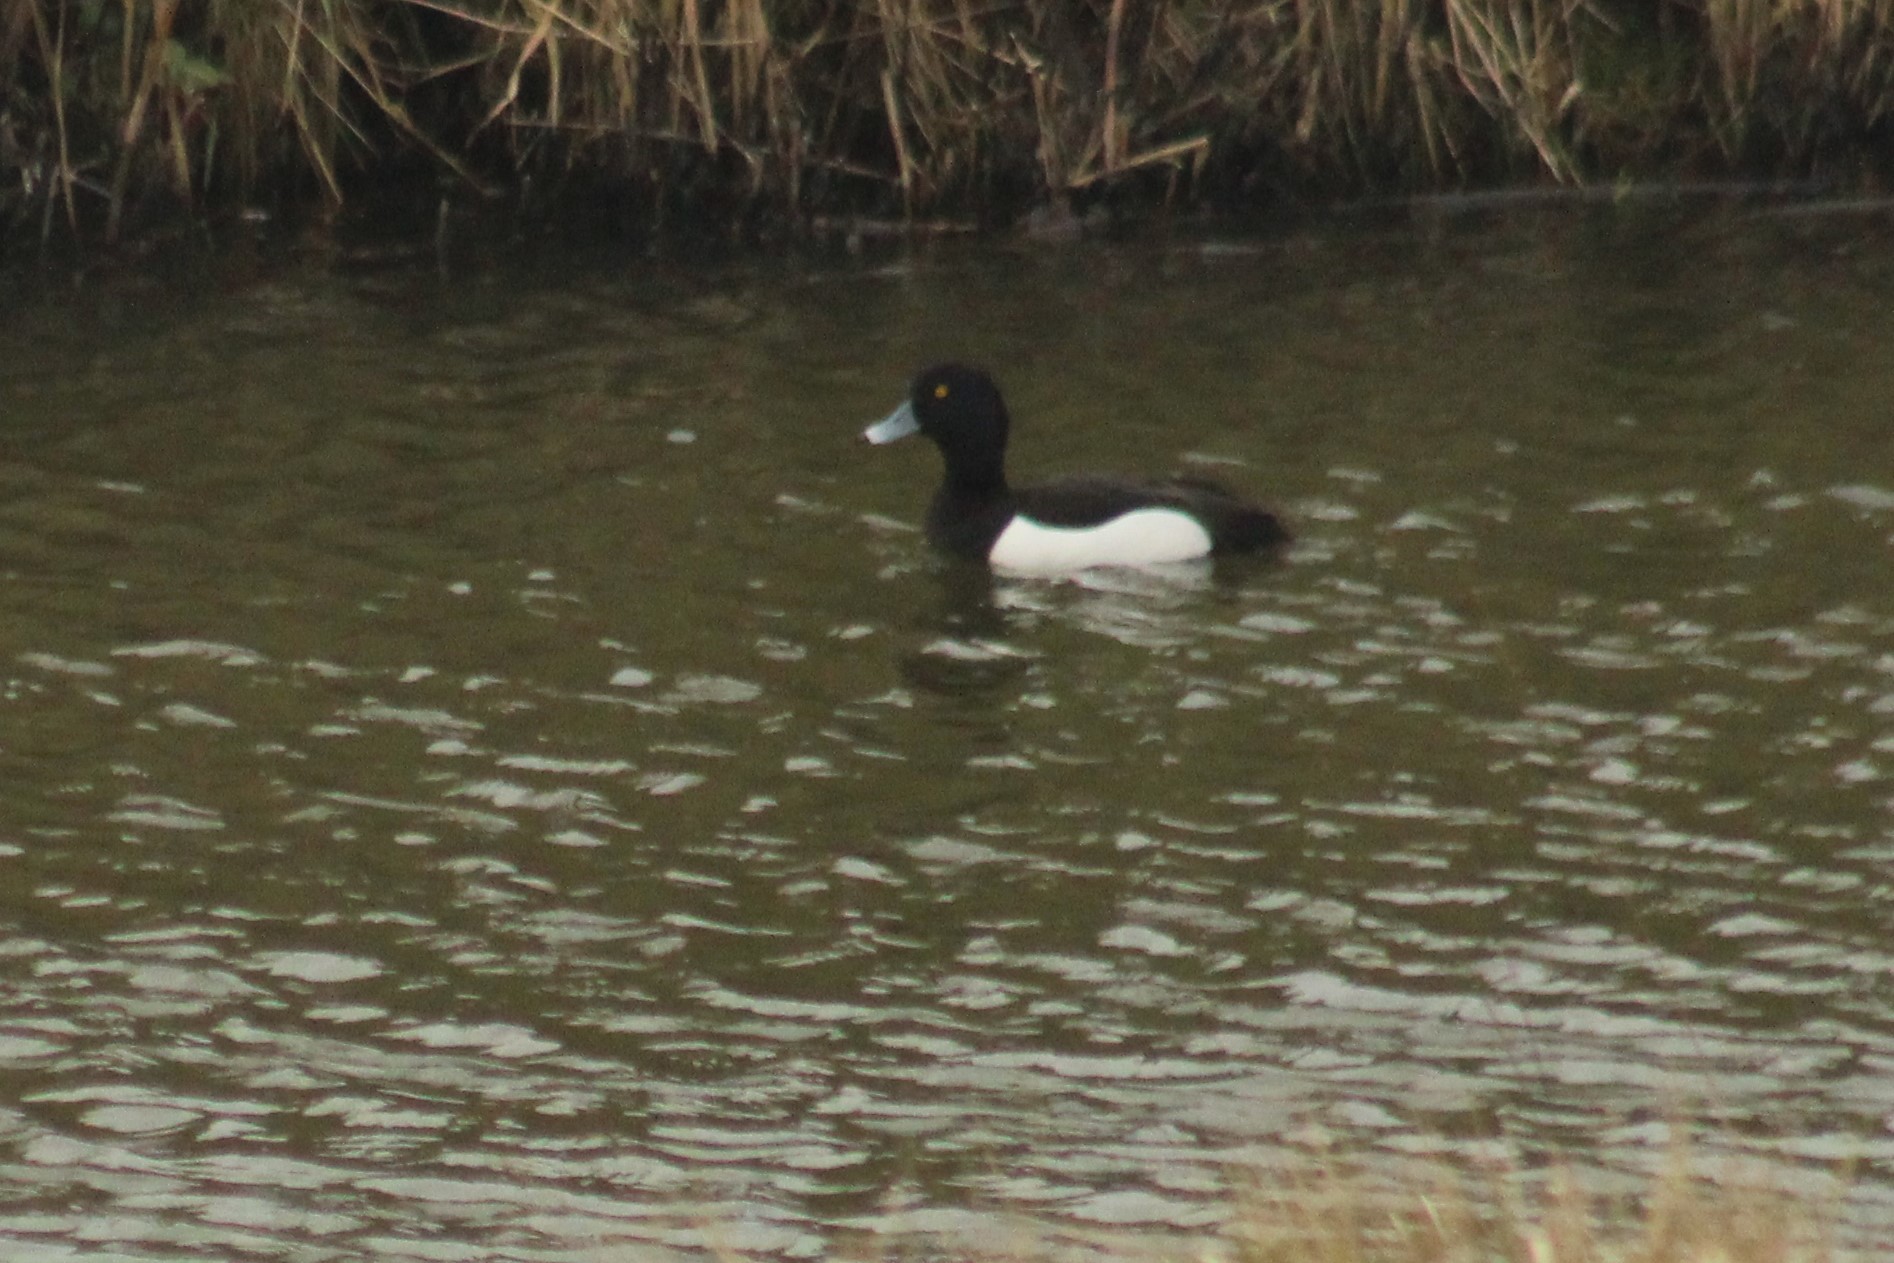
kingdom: Animalia
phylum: Chordata
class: Aves
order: Anseriformes
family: Anatidae
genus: Aythya
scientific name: Aythya fuligula
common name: Tufted duck
